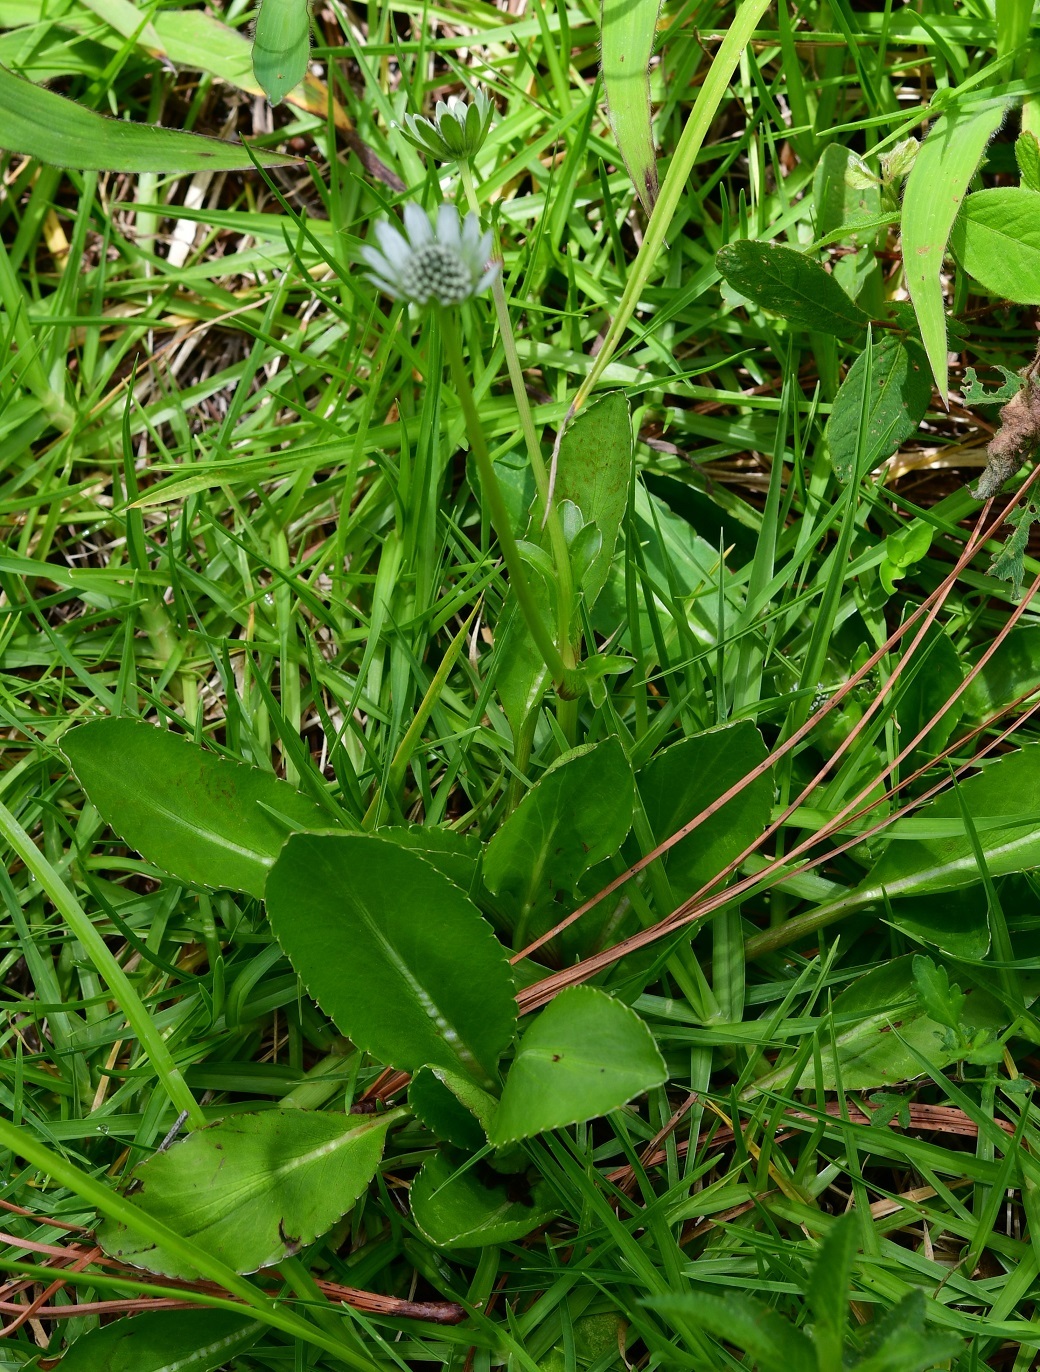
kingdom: Plantae
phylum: Tracheophyta
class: Magnoliopsida
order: Apiales
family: Apiaceae
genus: Eryngium
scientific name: Eryngium carlinae
